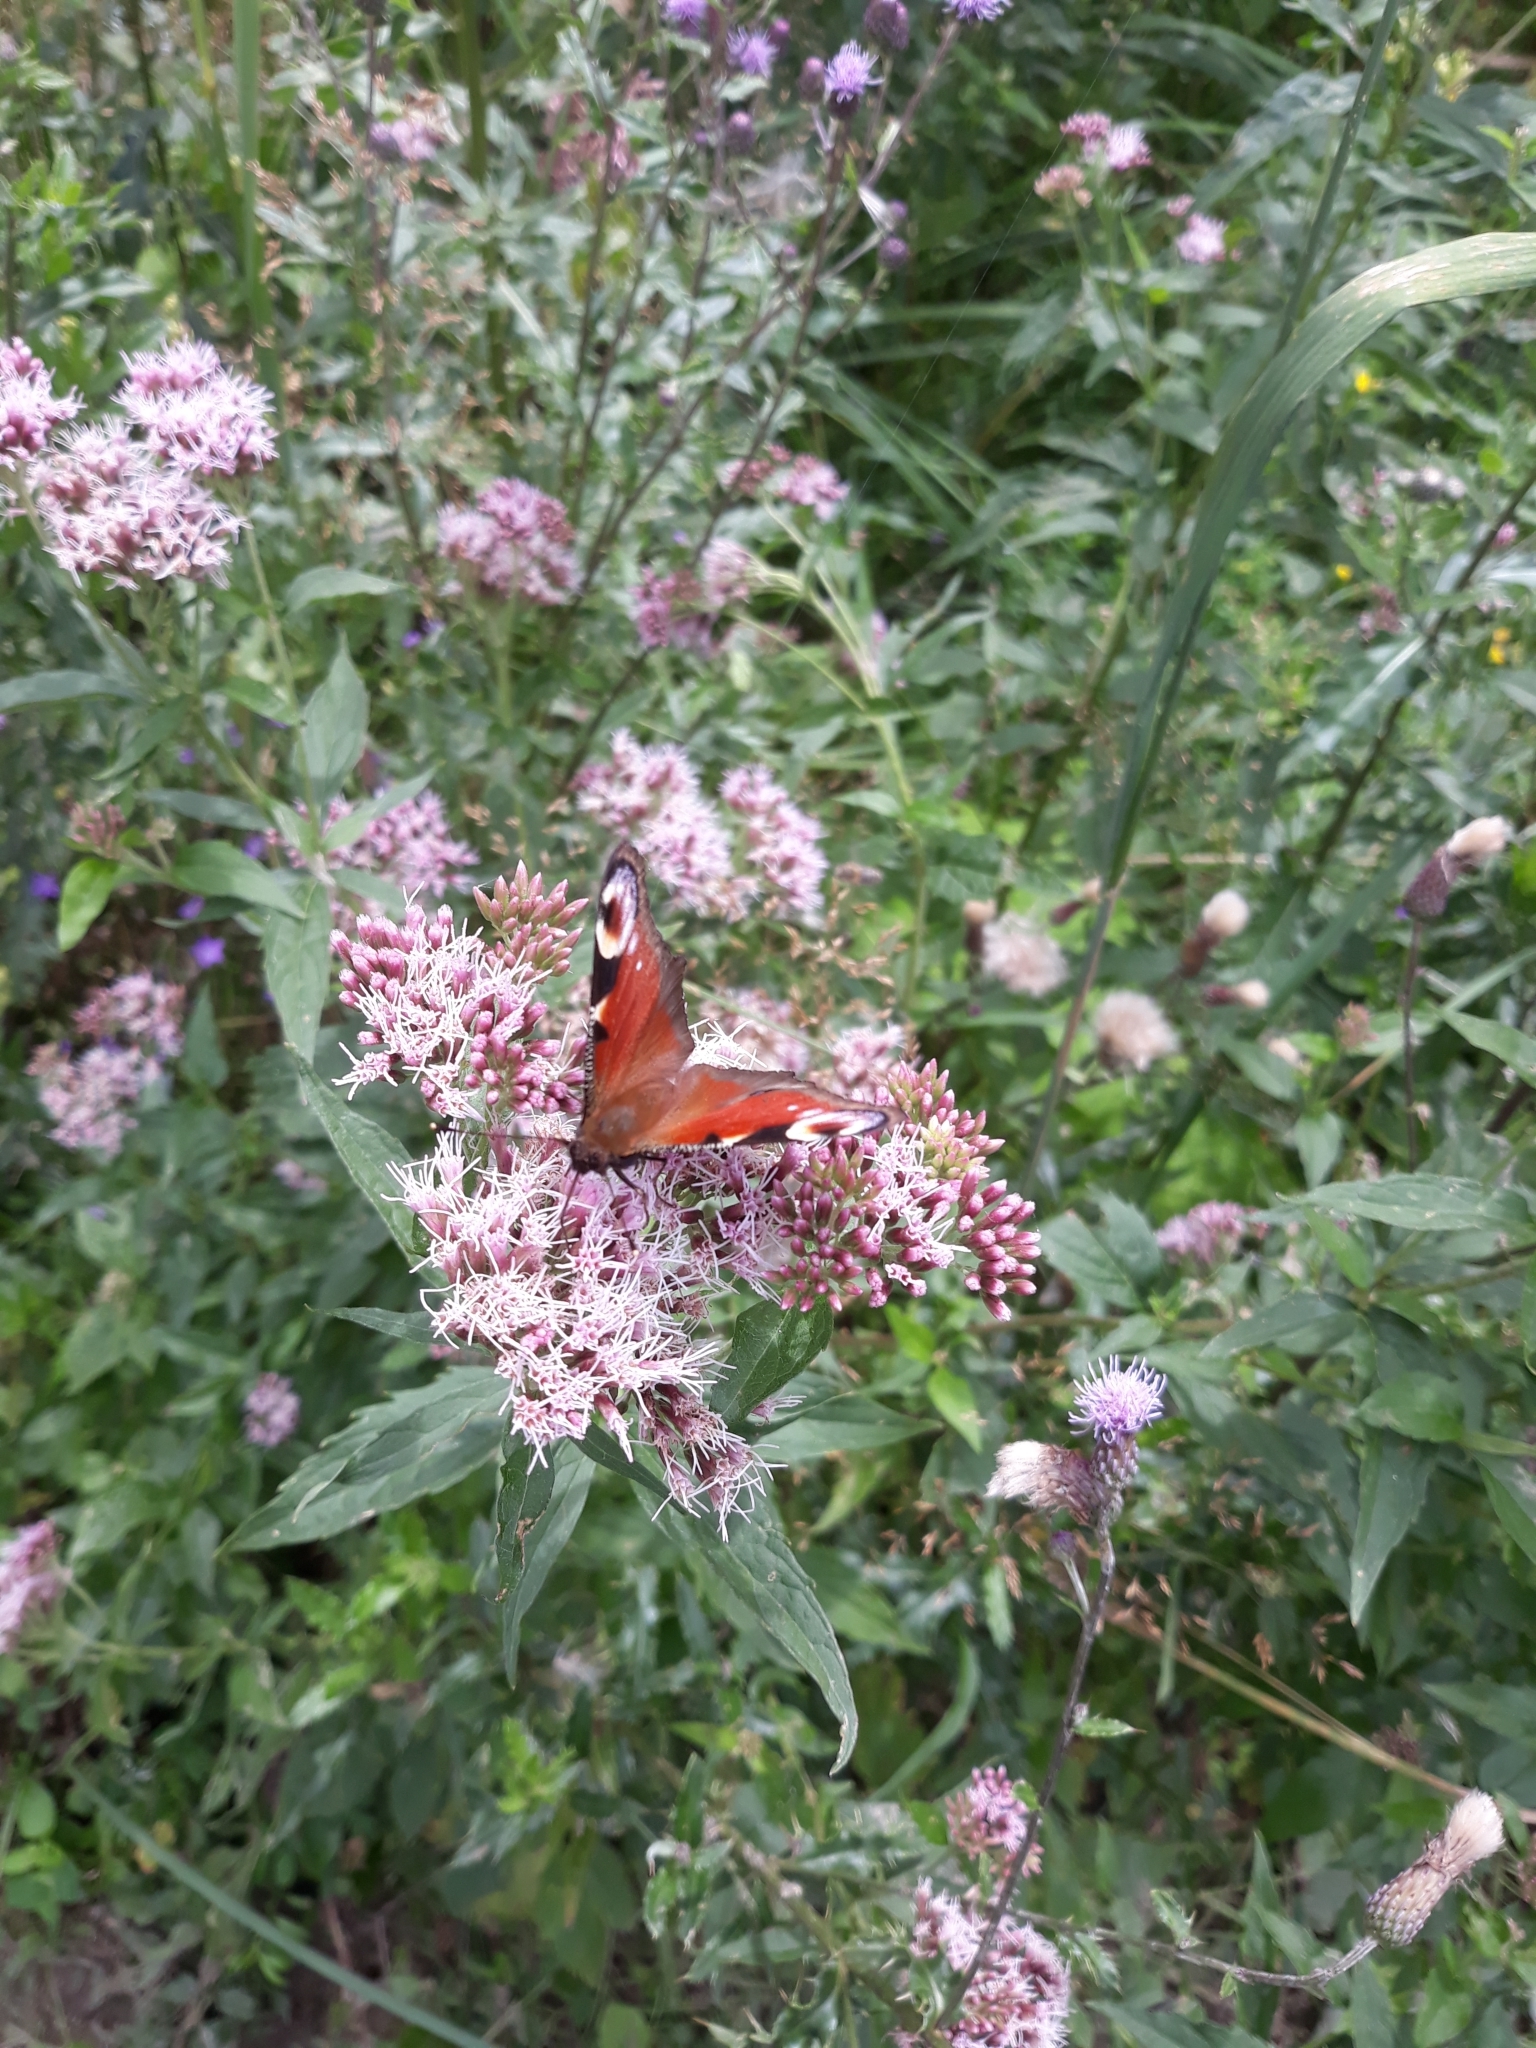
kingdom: Plantae
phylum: Tracheophyta
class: Magnoliopsida
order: Asterales
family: Asteraceae
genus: Eupatorium
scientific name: Eupatorium cannabinum
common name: Hemp-agrimony
